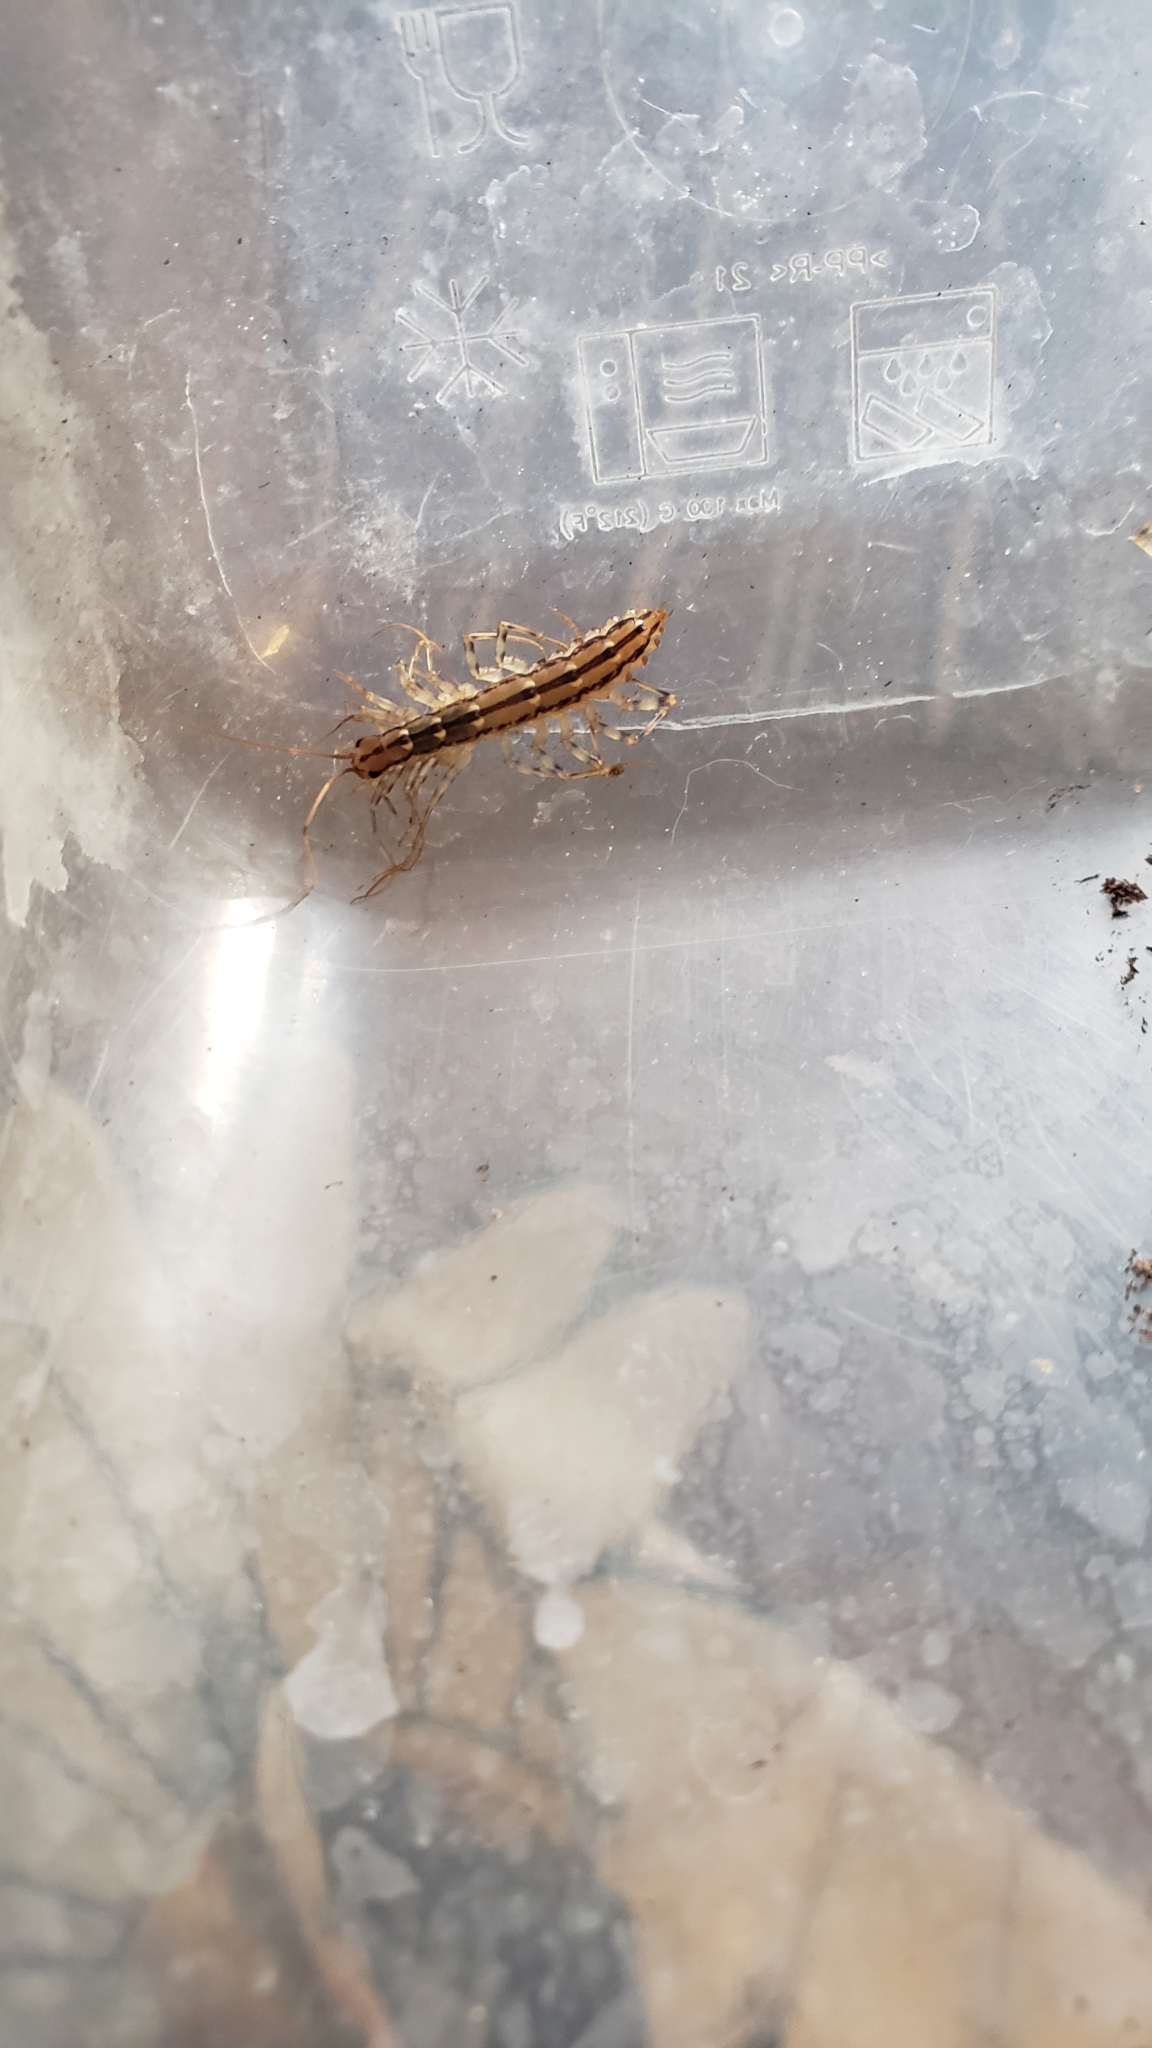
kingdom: Animalia
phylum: Arthropoda
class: Chilopoda
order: Scutigeromorpha
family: Scutigeridae
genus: Scutigera
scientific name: Scutigera coleoptrata
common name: House centipede
